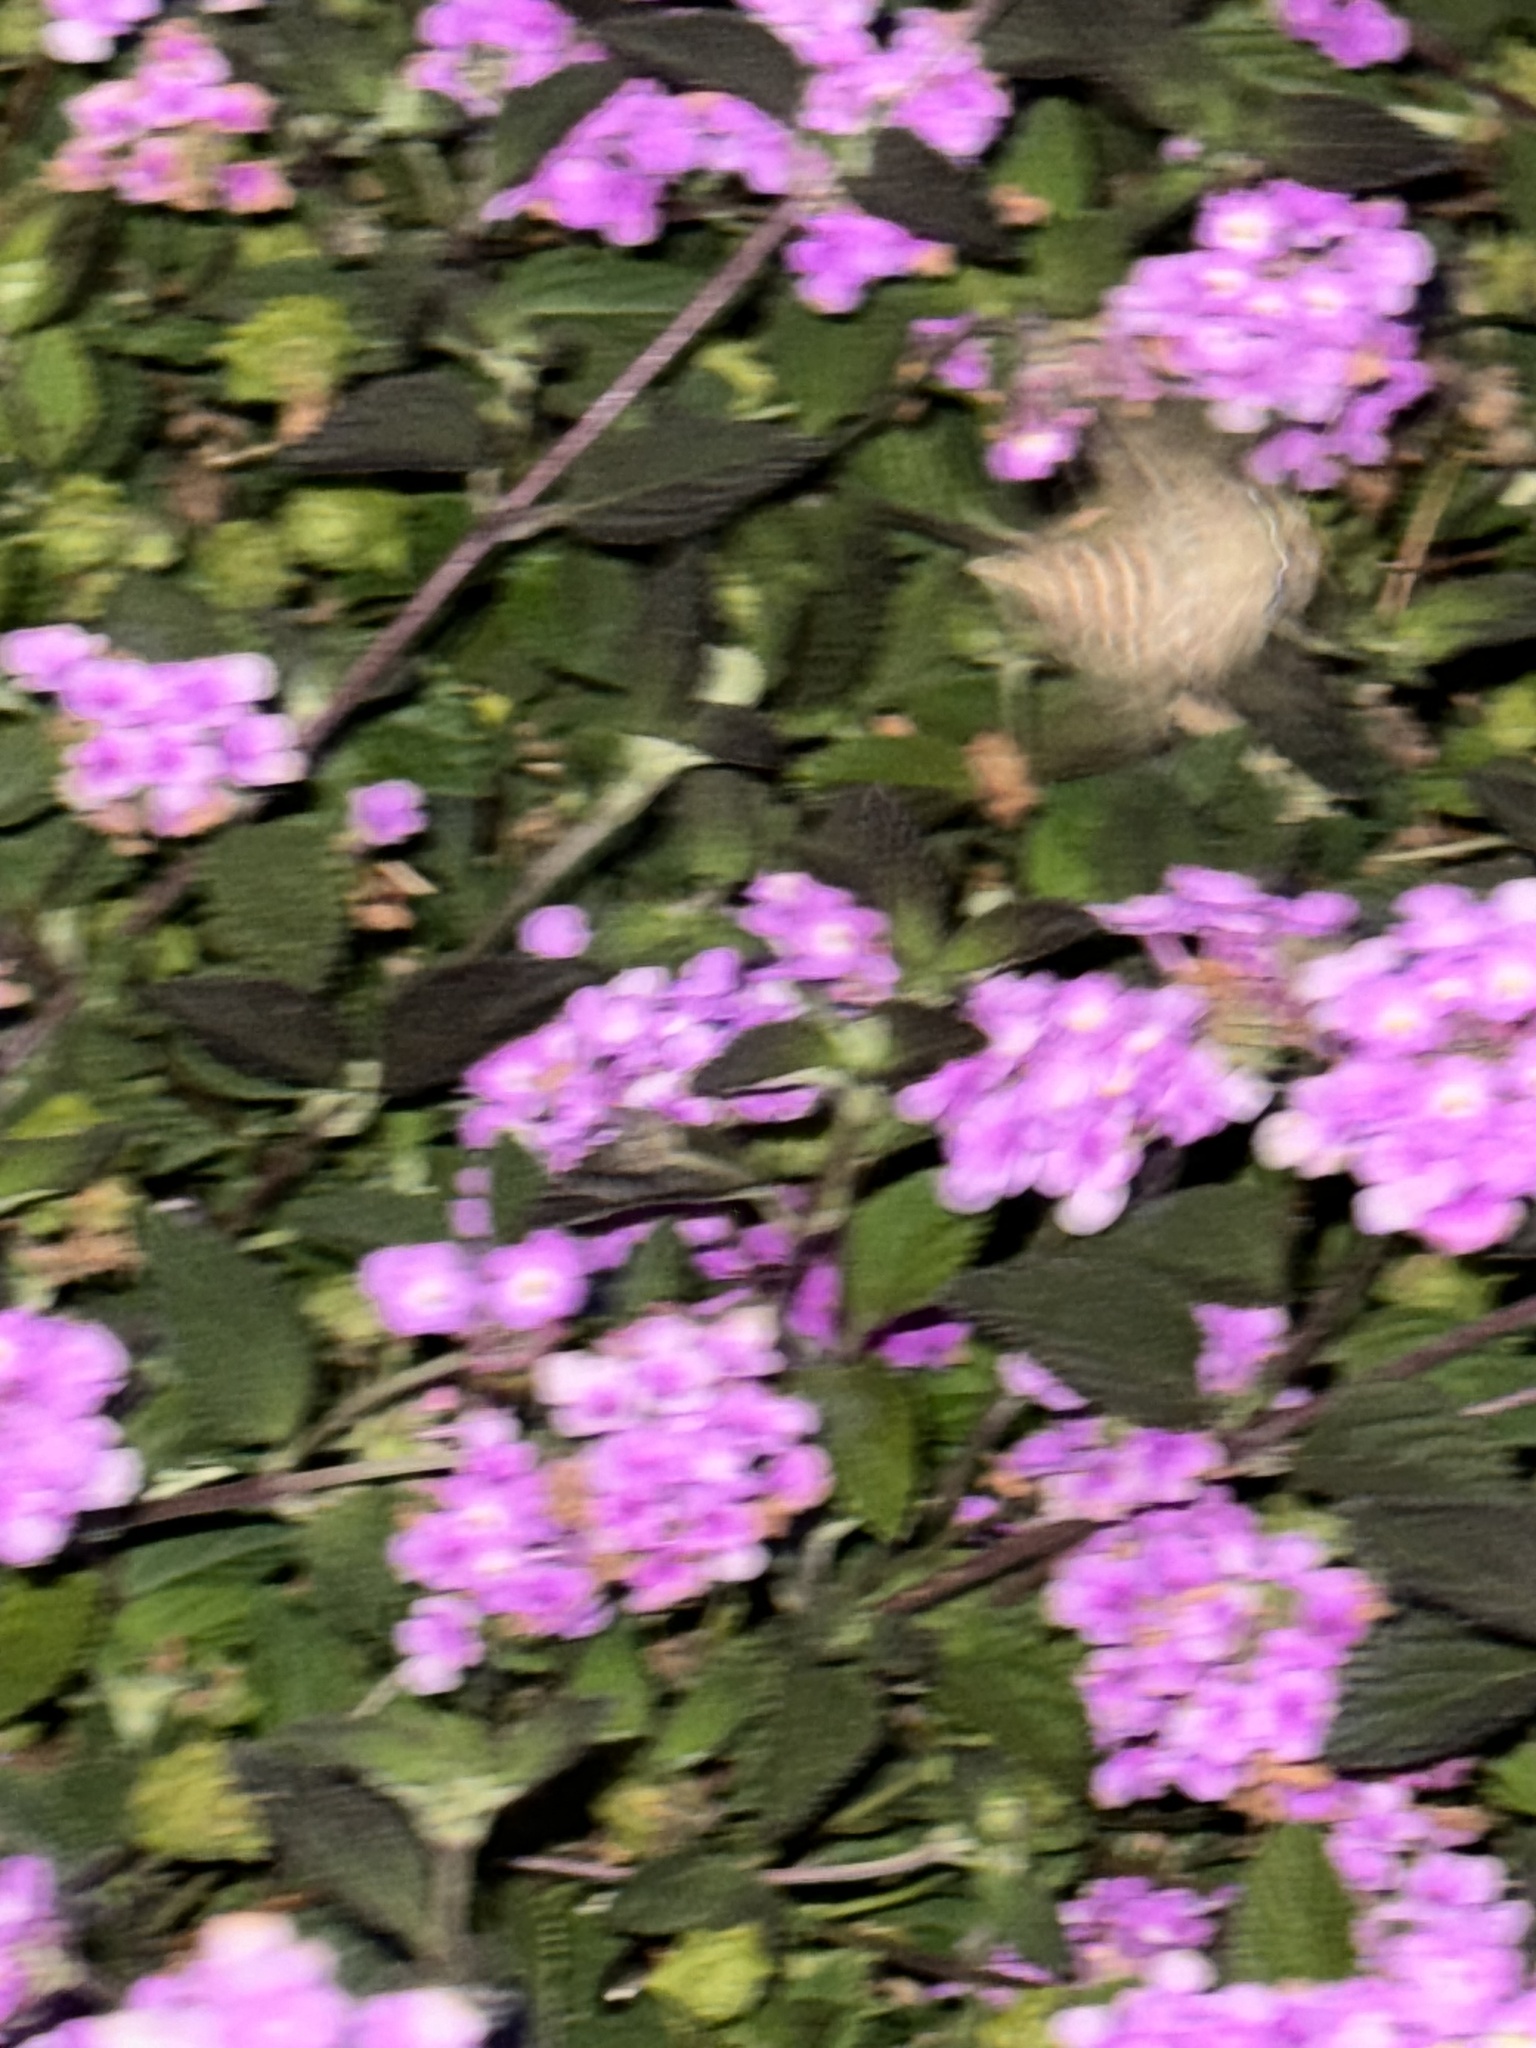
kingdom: Animalia
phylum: Arthropoda
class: Insecta
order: Lepidoptera
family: Sphingidae
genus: Hyles
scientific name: Hyles lineata
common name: White-lined sphinx
